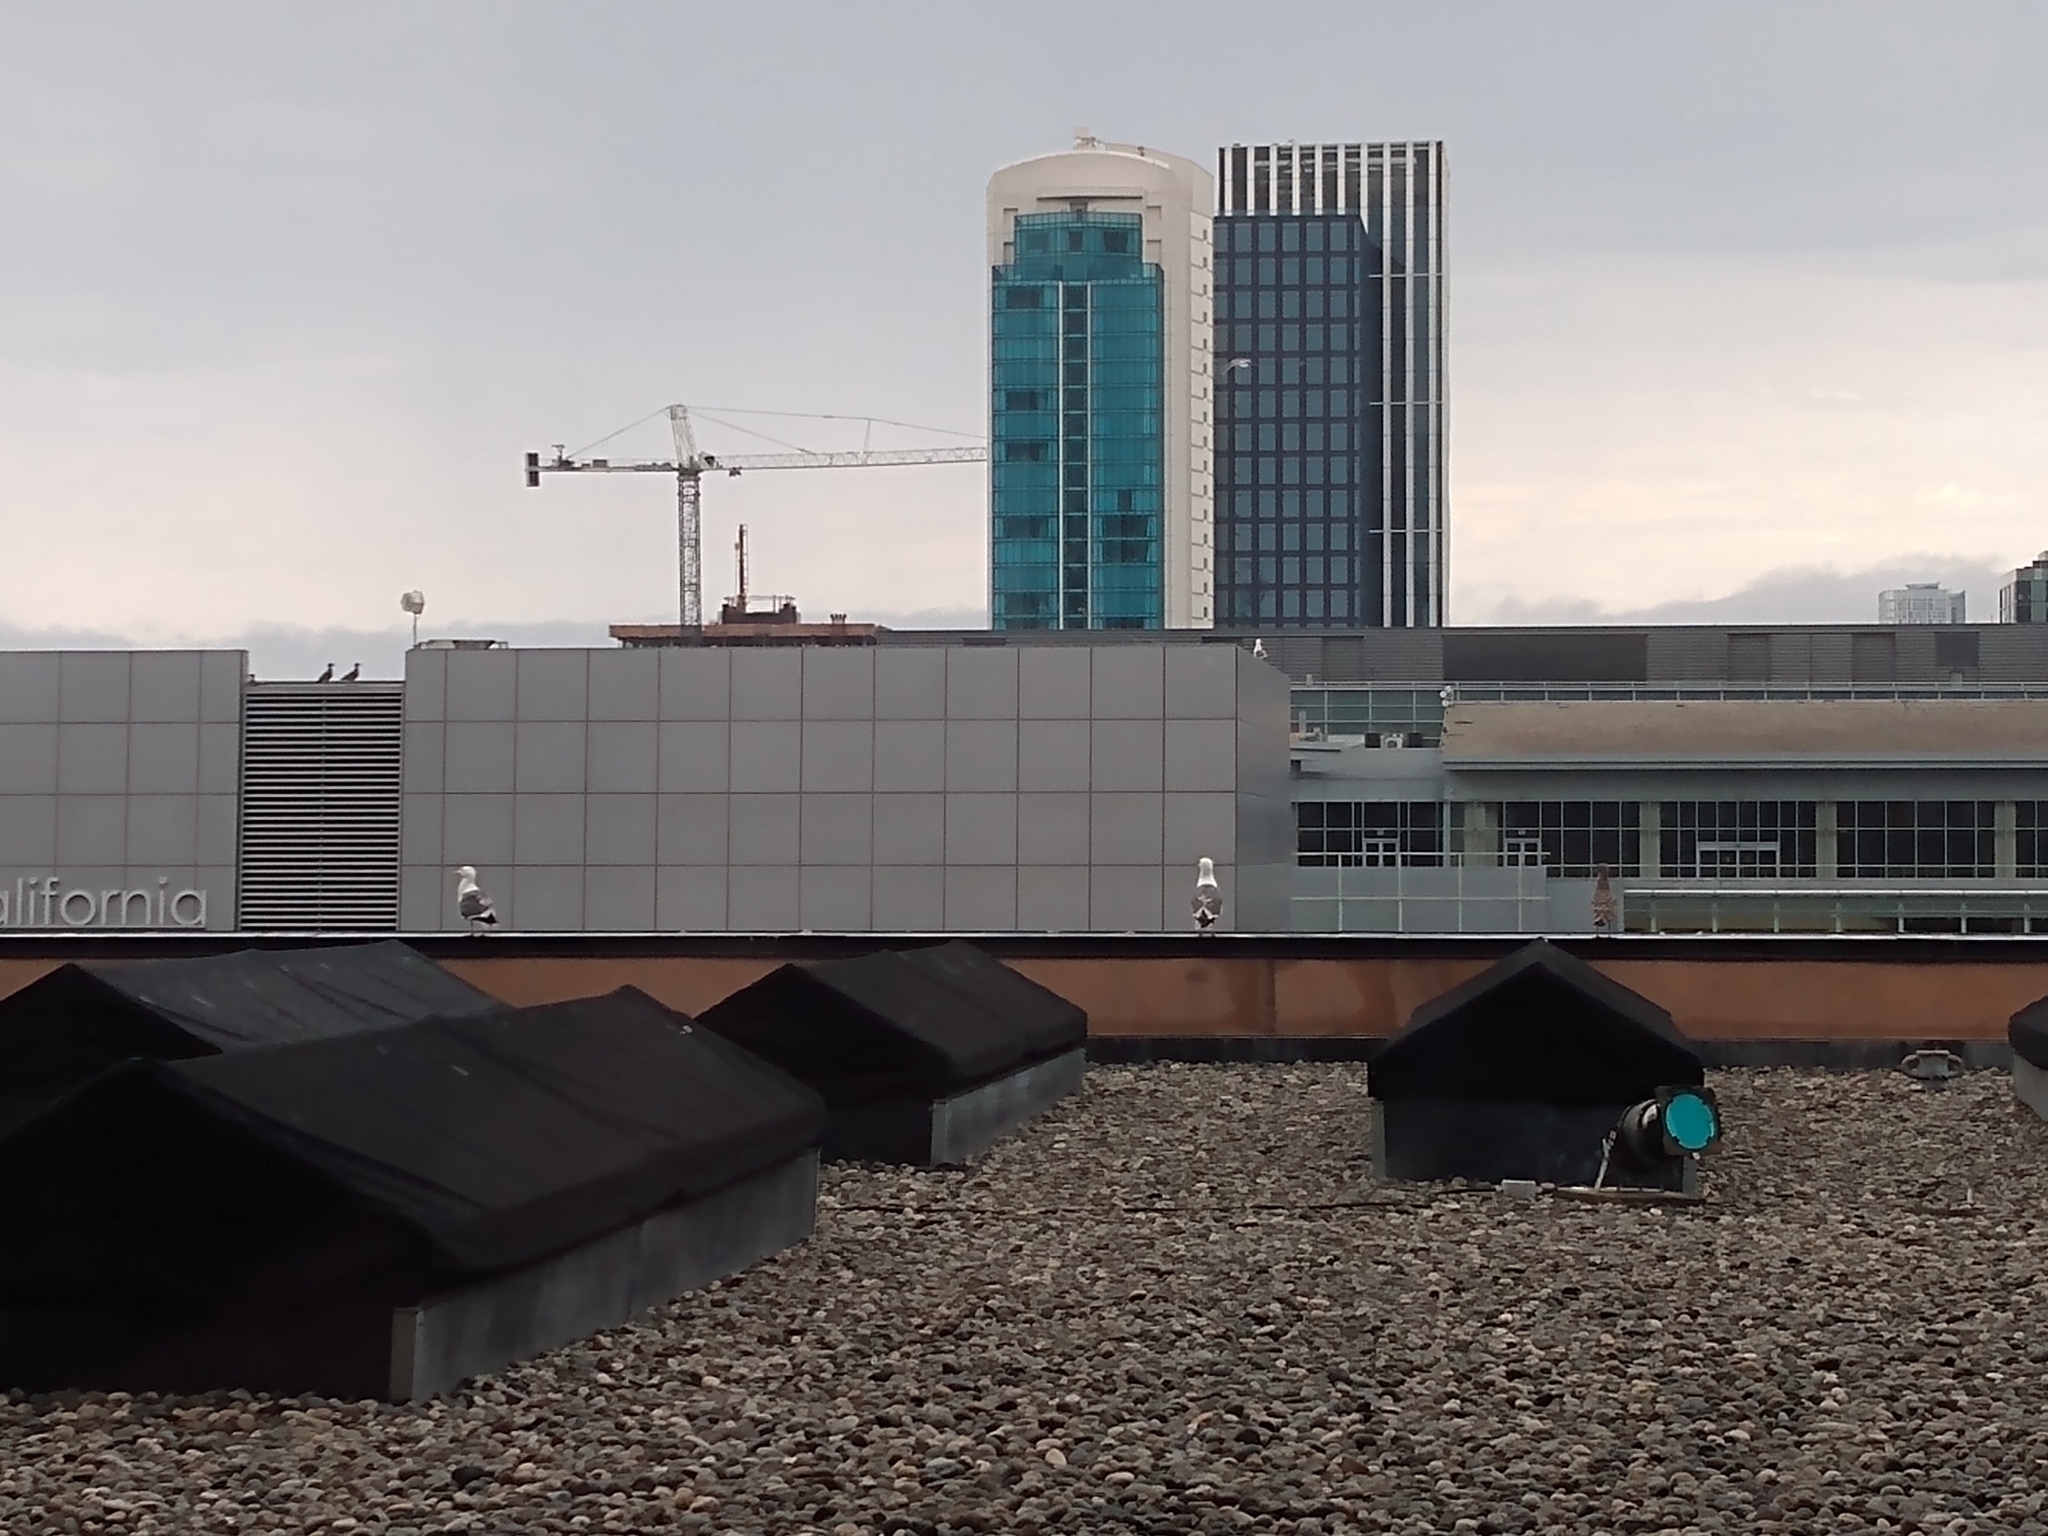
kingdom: Animalia
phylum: Chordata
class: Aves
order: Charadriiformes
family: Laridae
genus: Larus
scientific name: Larus occidentalis
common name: Western gull
